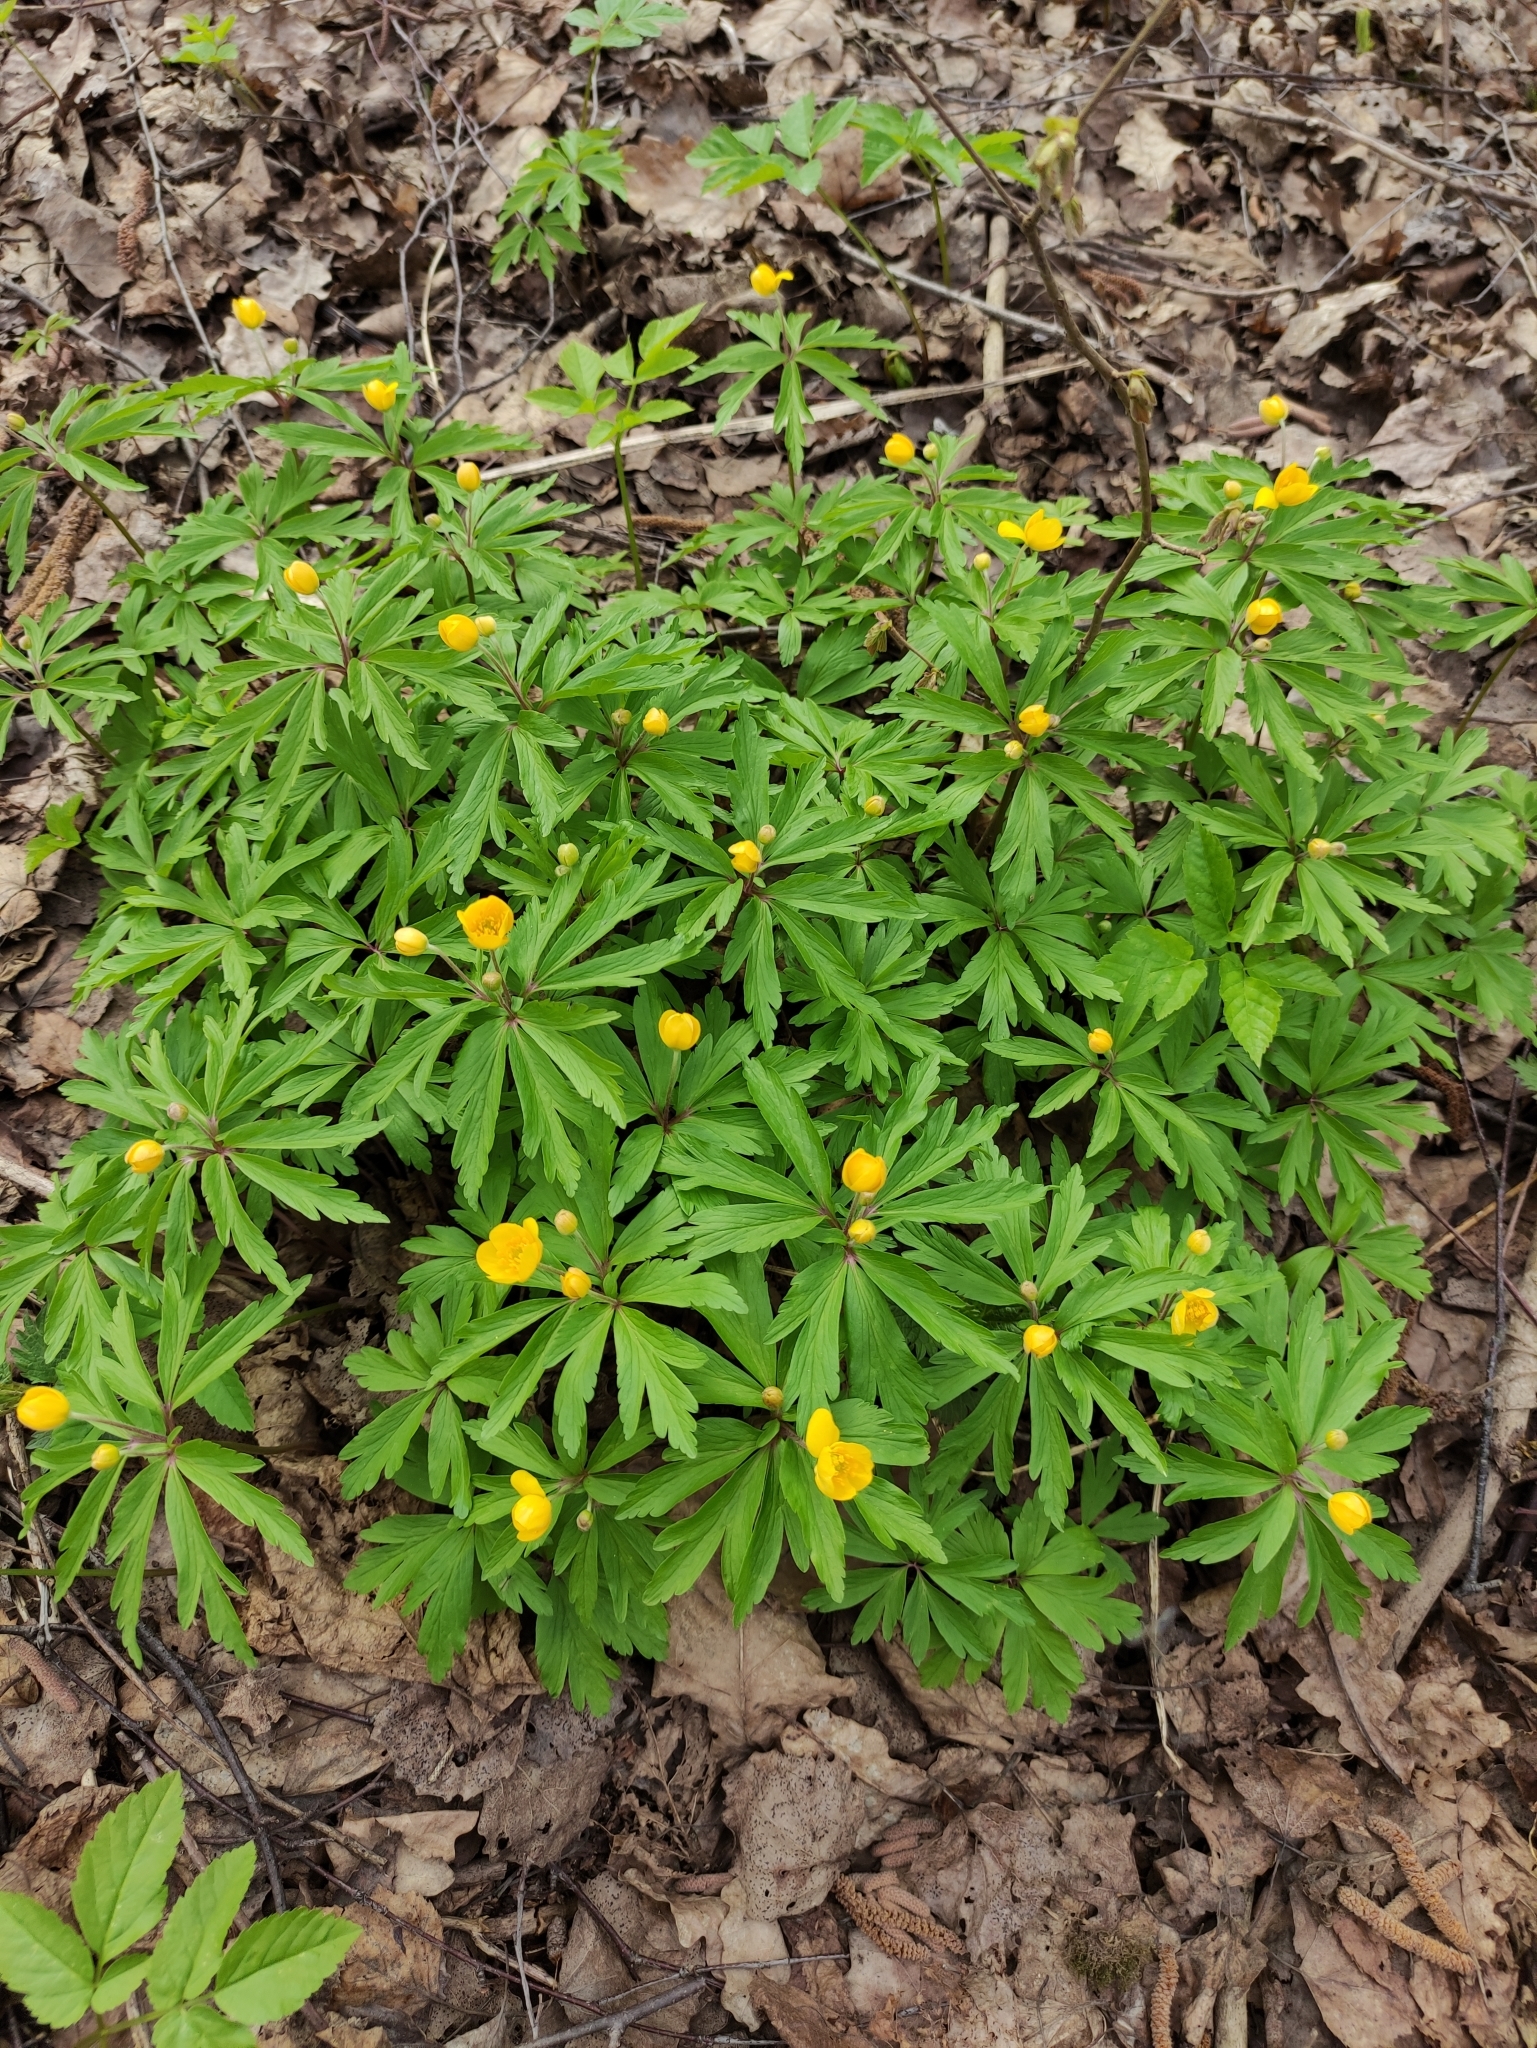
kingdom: Plantae
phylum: Tracheophyta
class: Magnoliopsida
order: Ranunculales
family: Ranunculaceae
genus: Anemone
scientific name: Anemone ranunculoides
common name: Yellow anemone
